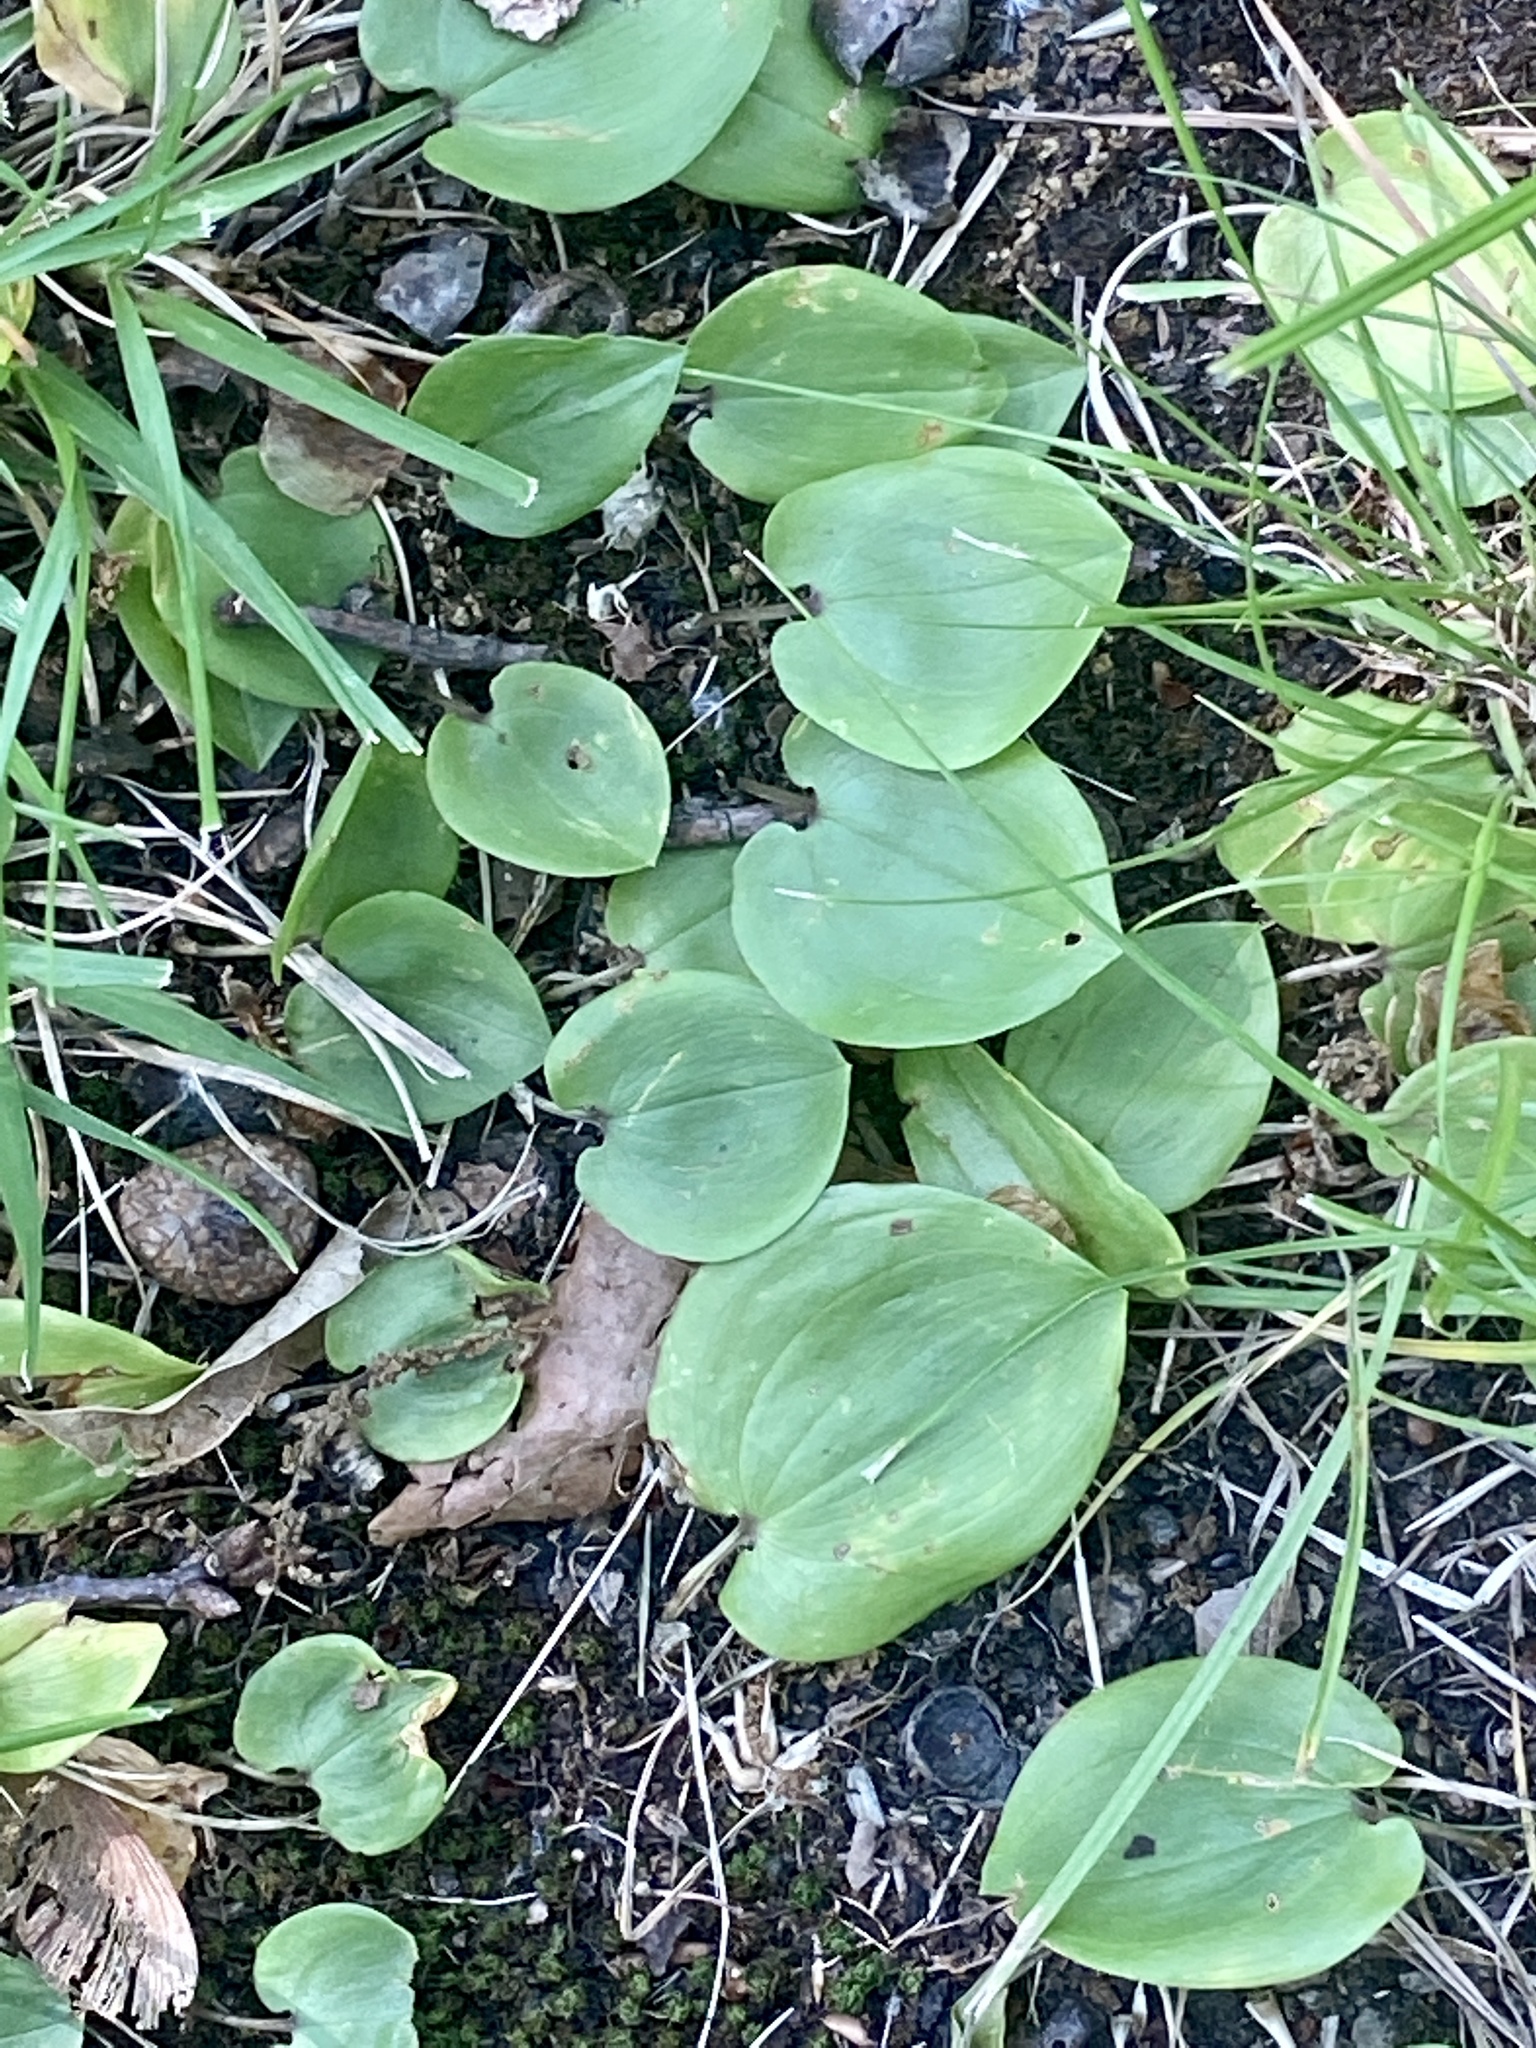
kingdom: Plantae
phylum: Tracheophyta
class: Liliopsida
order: Asparagales
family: Asparagaceae
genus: Maianthemum
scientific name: Maianthemum canadense
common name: False lily-of-the-valley
